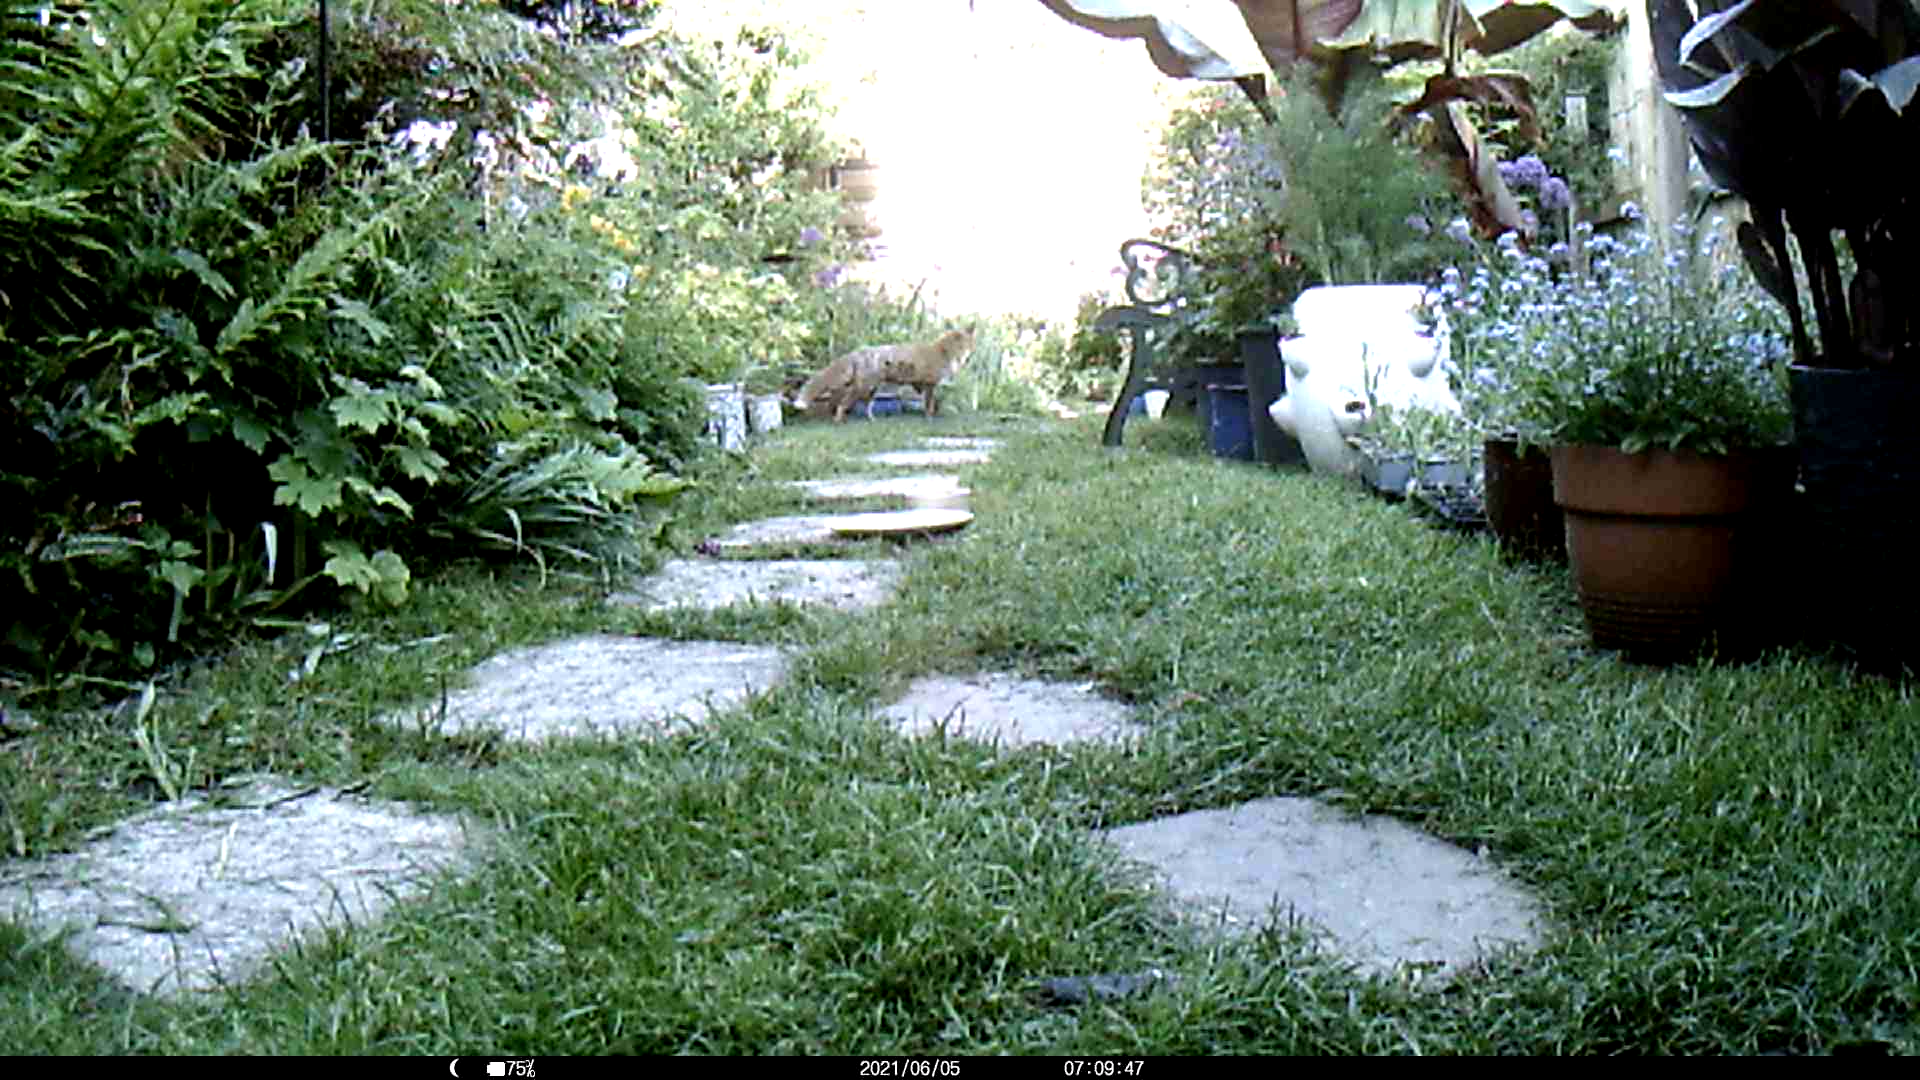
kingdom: Animalia
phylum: Chordata
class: Mammalia
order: Carnivora
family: Canidae
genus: Vulpes
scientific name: Vulpes vulpes
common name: Red fox
